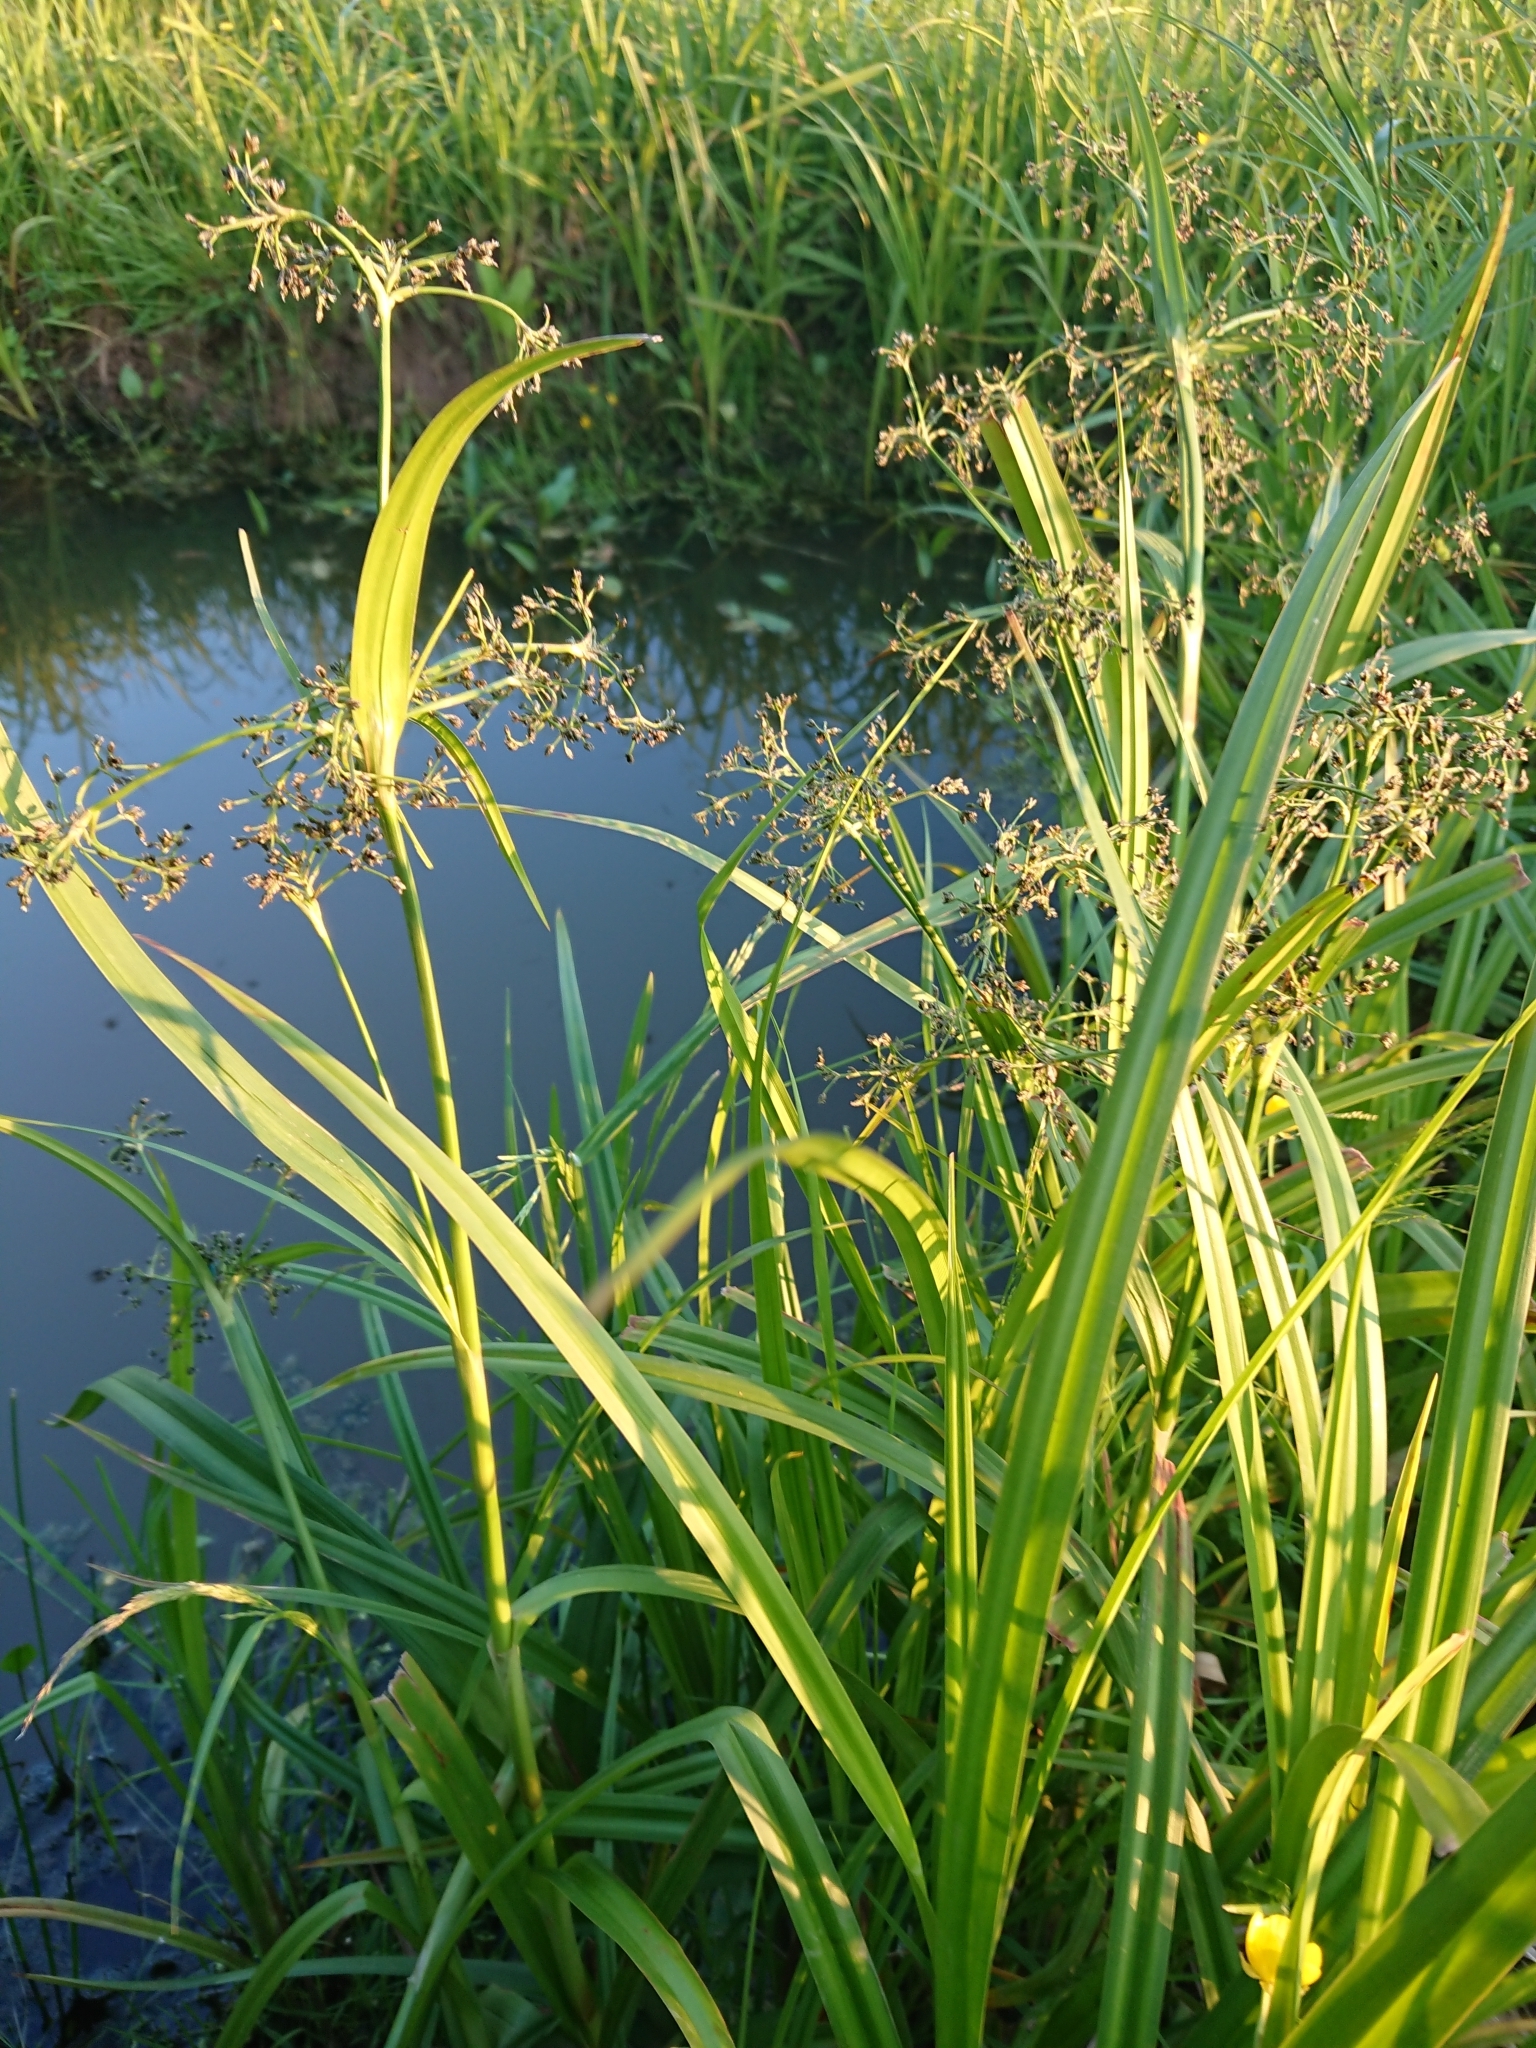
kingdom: Plantae
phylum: Tracheophyta
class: Liliopsida
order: Poales
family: Cyperaceae
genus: Scirpus
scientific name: Scirpus sylvaticus
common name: Wood club-rush
